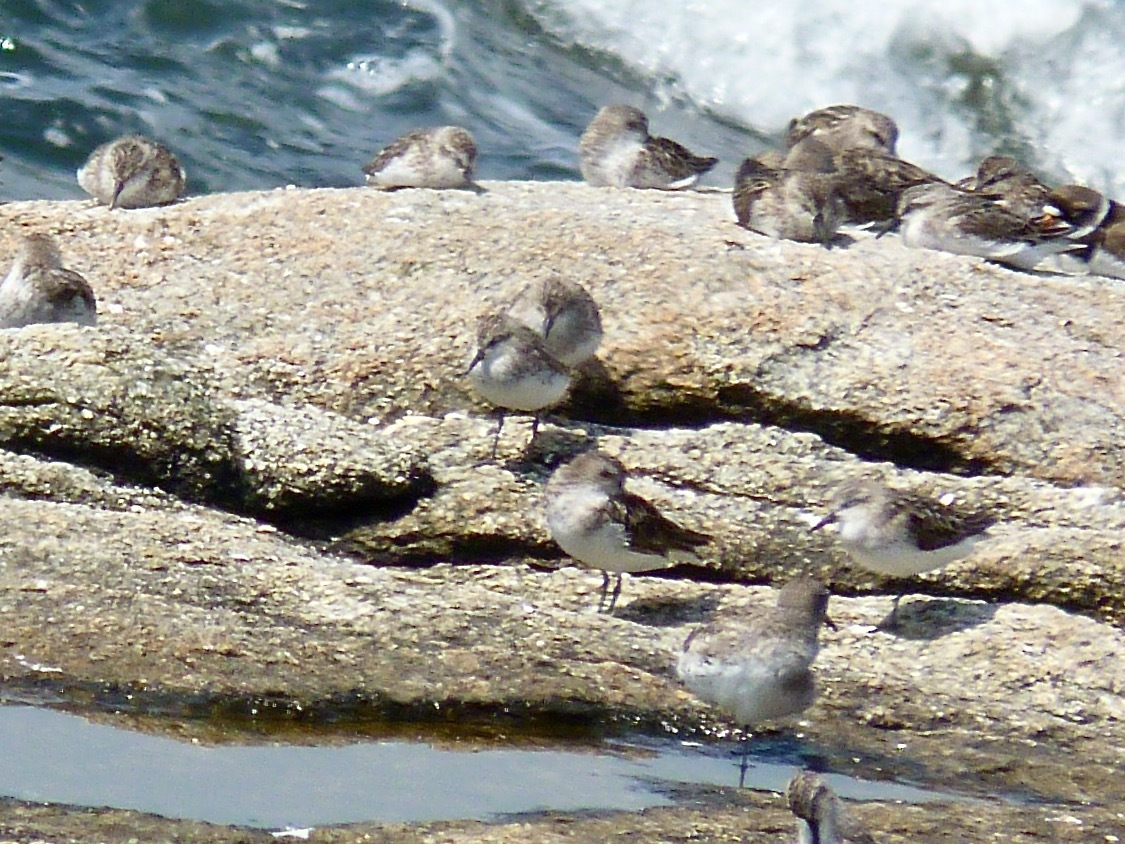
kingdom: Animalia
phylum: Chordata
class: Aves
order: Charadriiformes
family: Scolopacidae
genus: Calidris
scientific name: Calidris pusilla
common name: Semipalmated sandpiper
